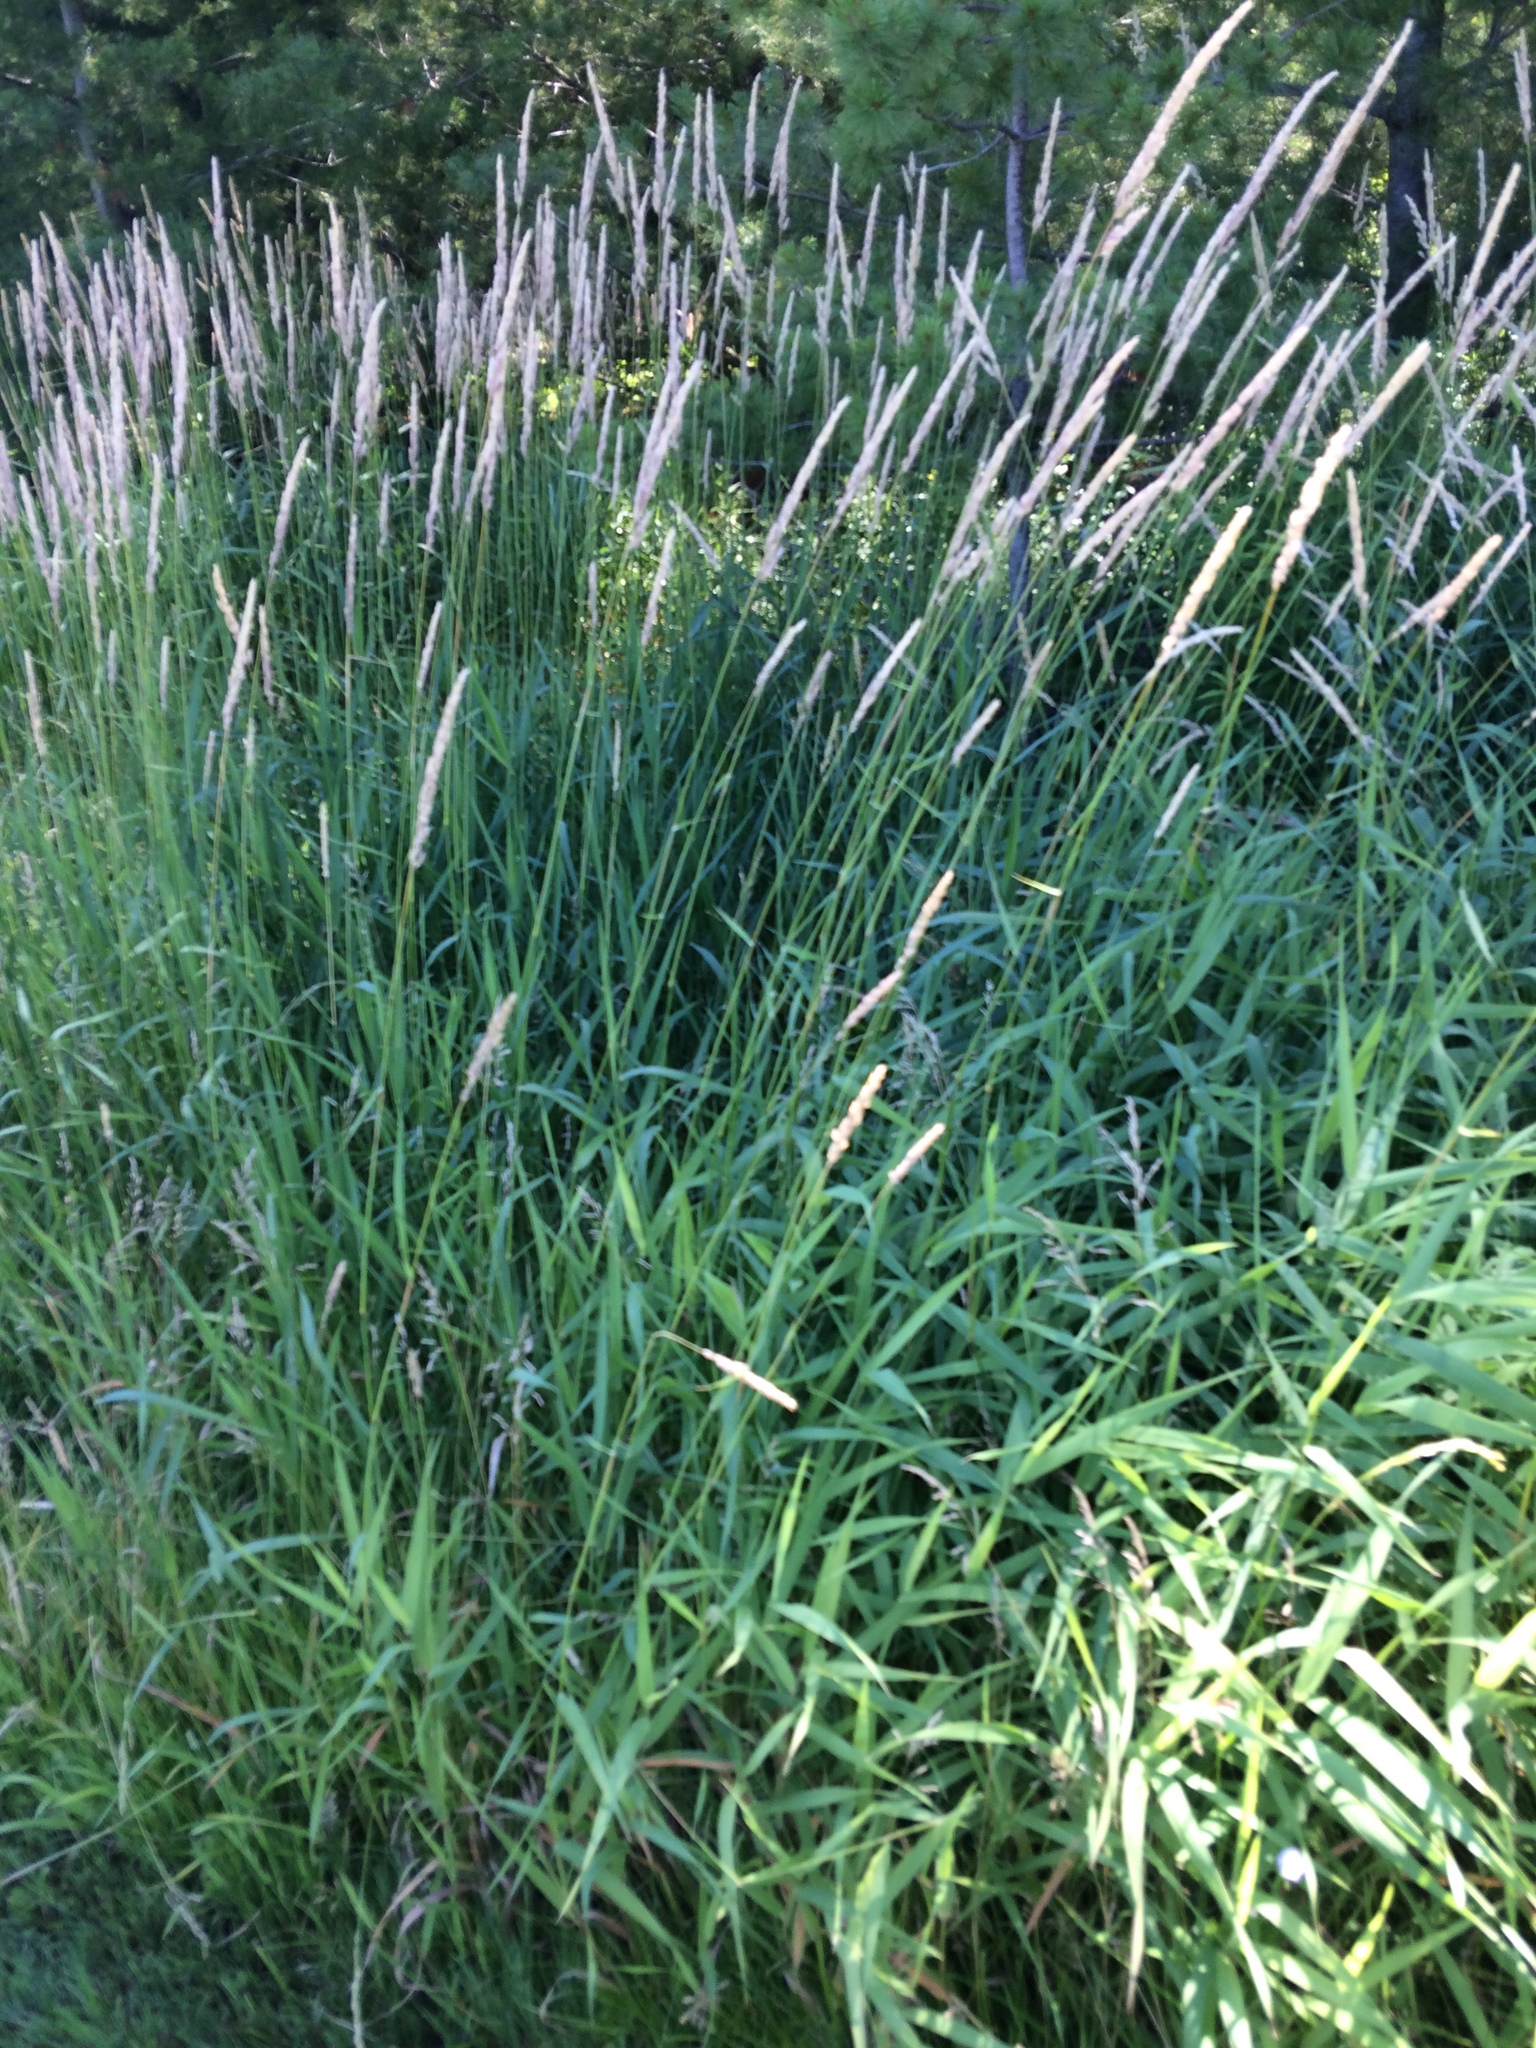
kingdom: Plantae
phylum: Tracheophyta
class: Liliopsida
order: Poales
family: Poaceae
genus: Phalaris
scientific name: Phalaris arundinacea
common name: Reed canary-grass
